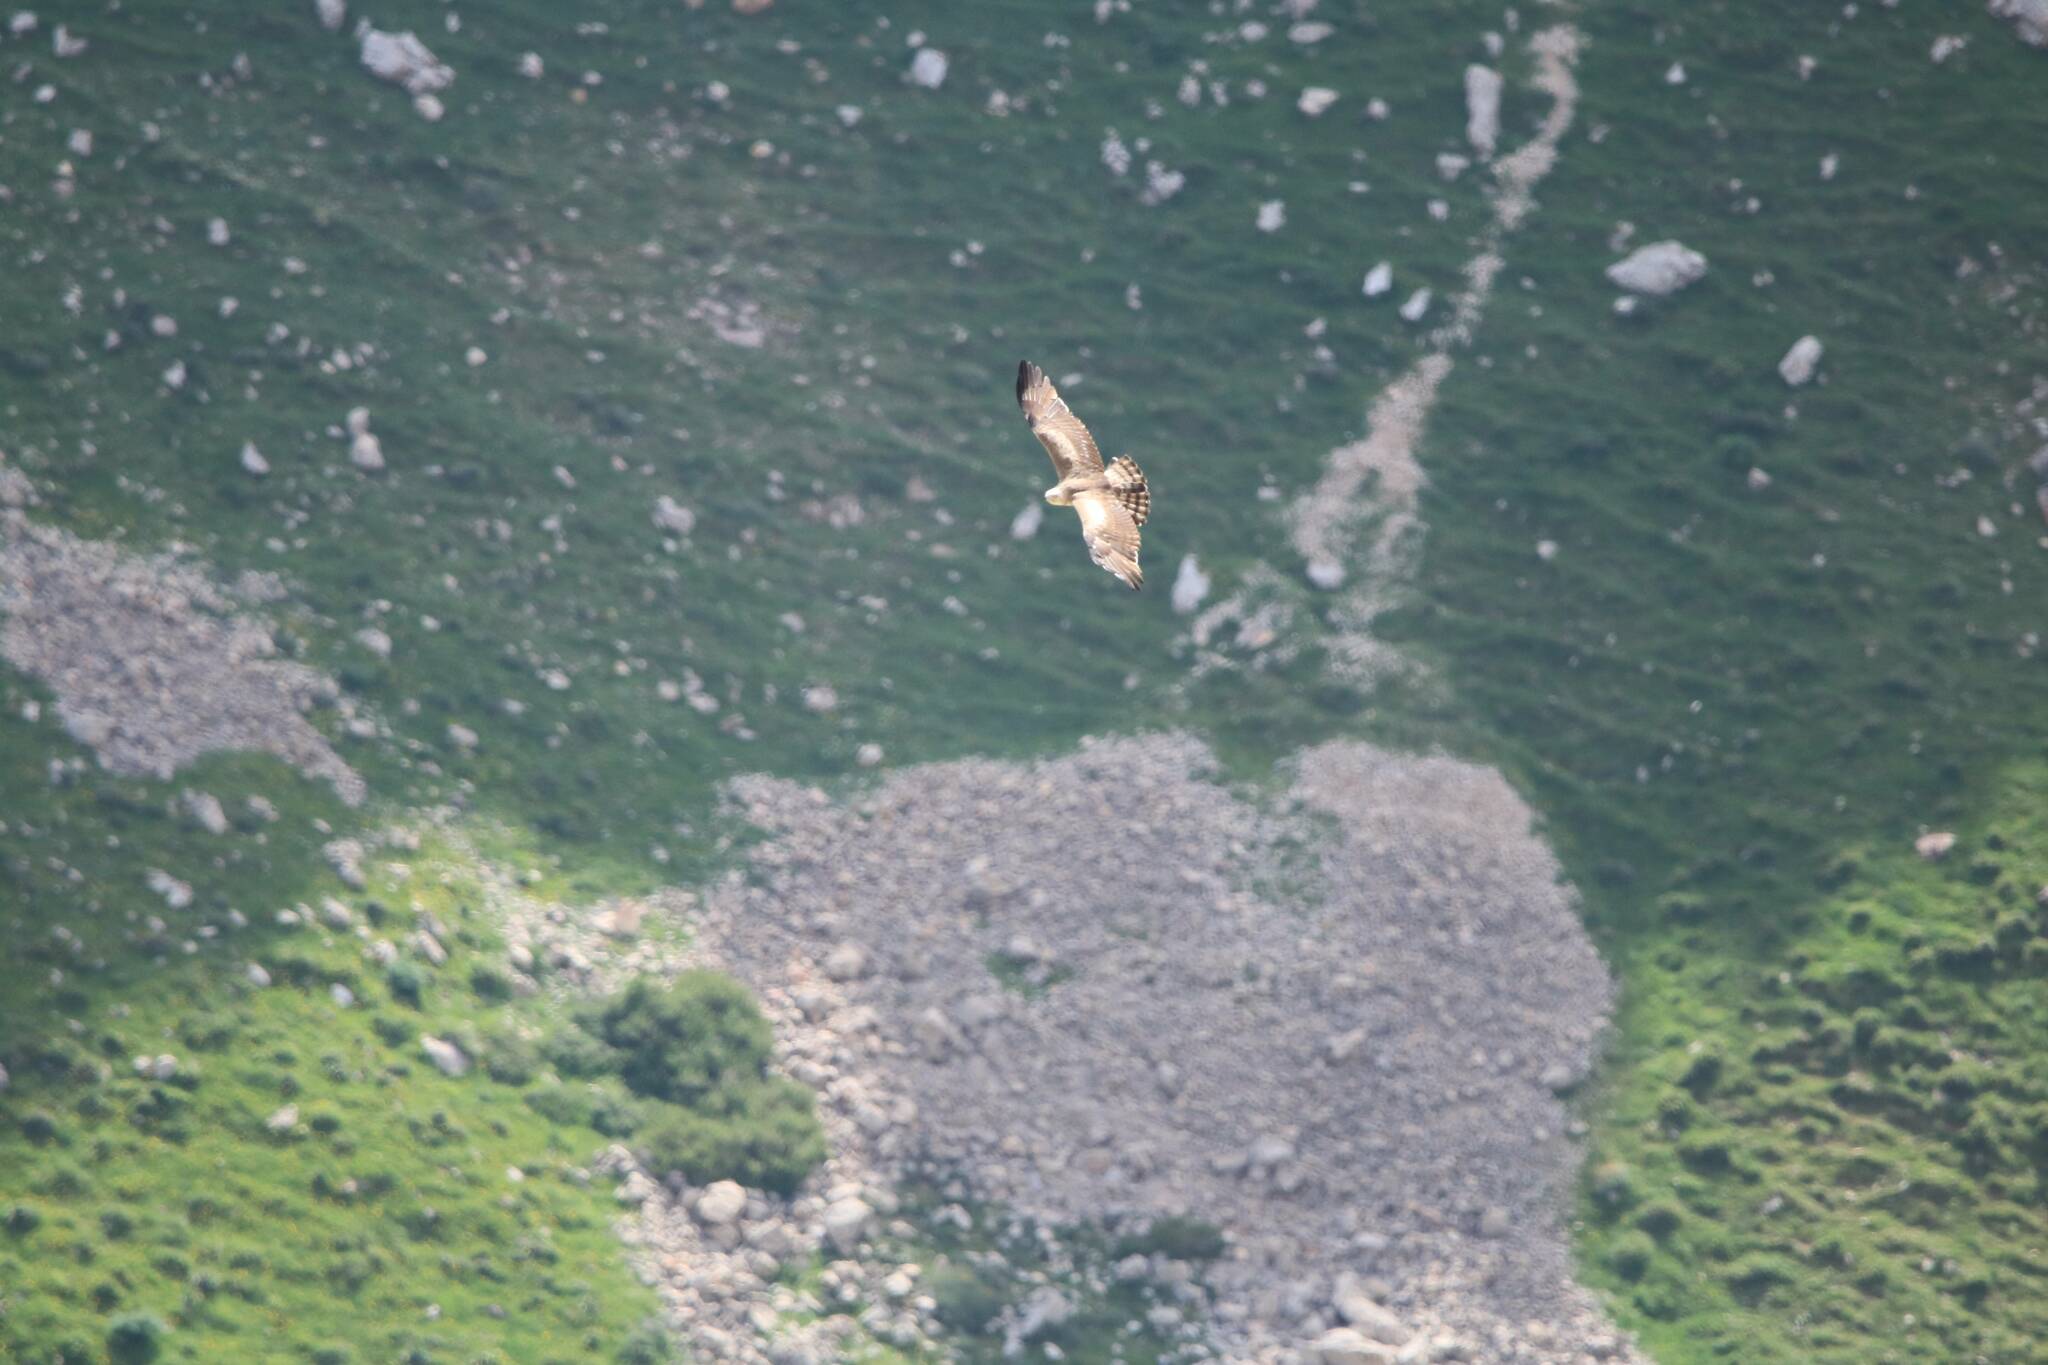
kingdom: Animalia
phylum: Chordata
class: Aves
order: Accipitriformes
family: Accipitridae
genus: Circaetus
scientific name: Circaetus gallicus
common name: Short-toed snake eagle
